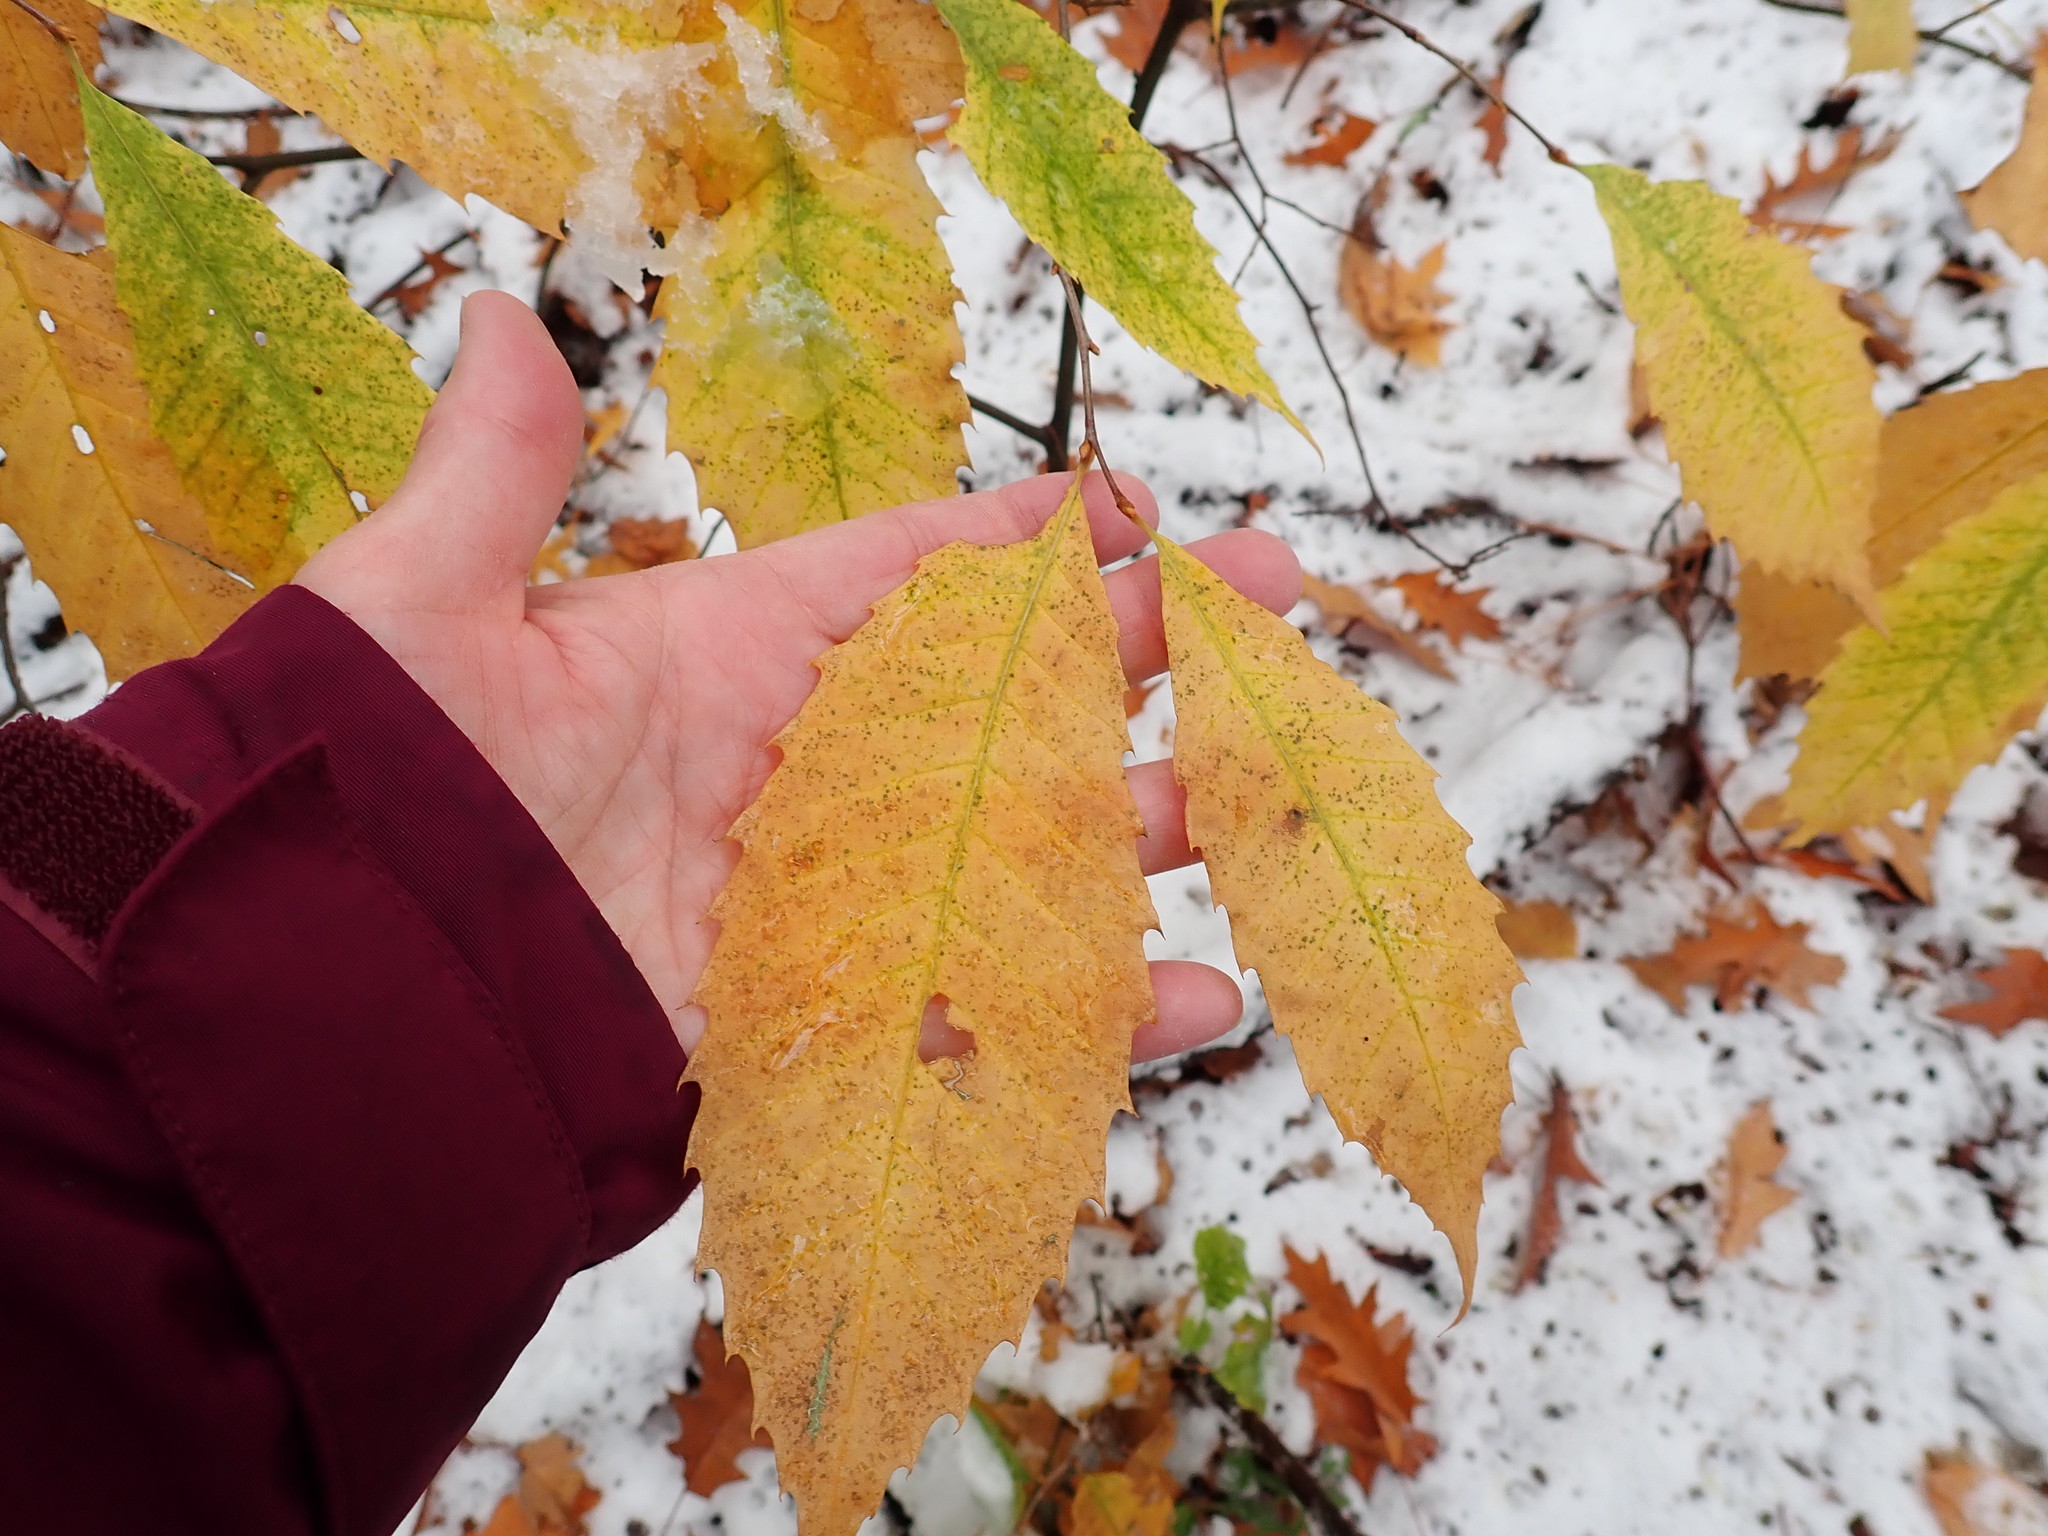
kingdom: Plantae
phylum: Tracheophyta
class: Magnoliopsida
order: Fagales
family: Fagaceae
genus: Castanea
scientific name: Castanea dentata
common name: American chestnut
